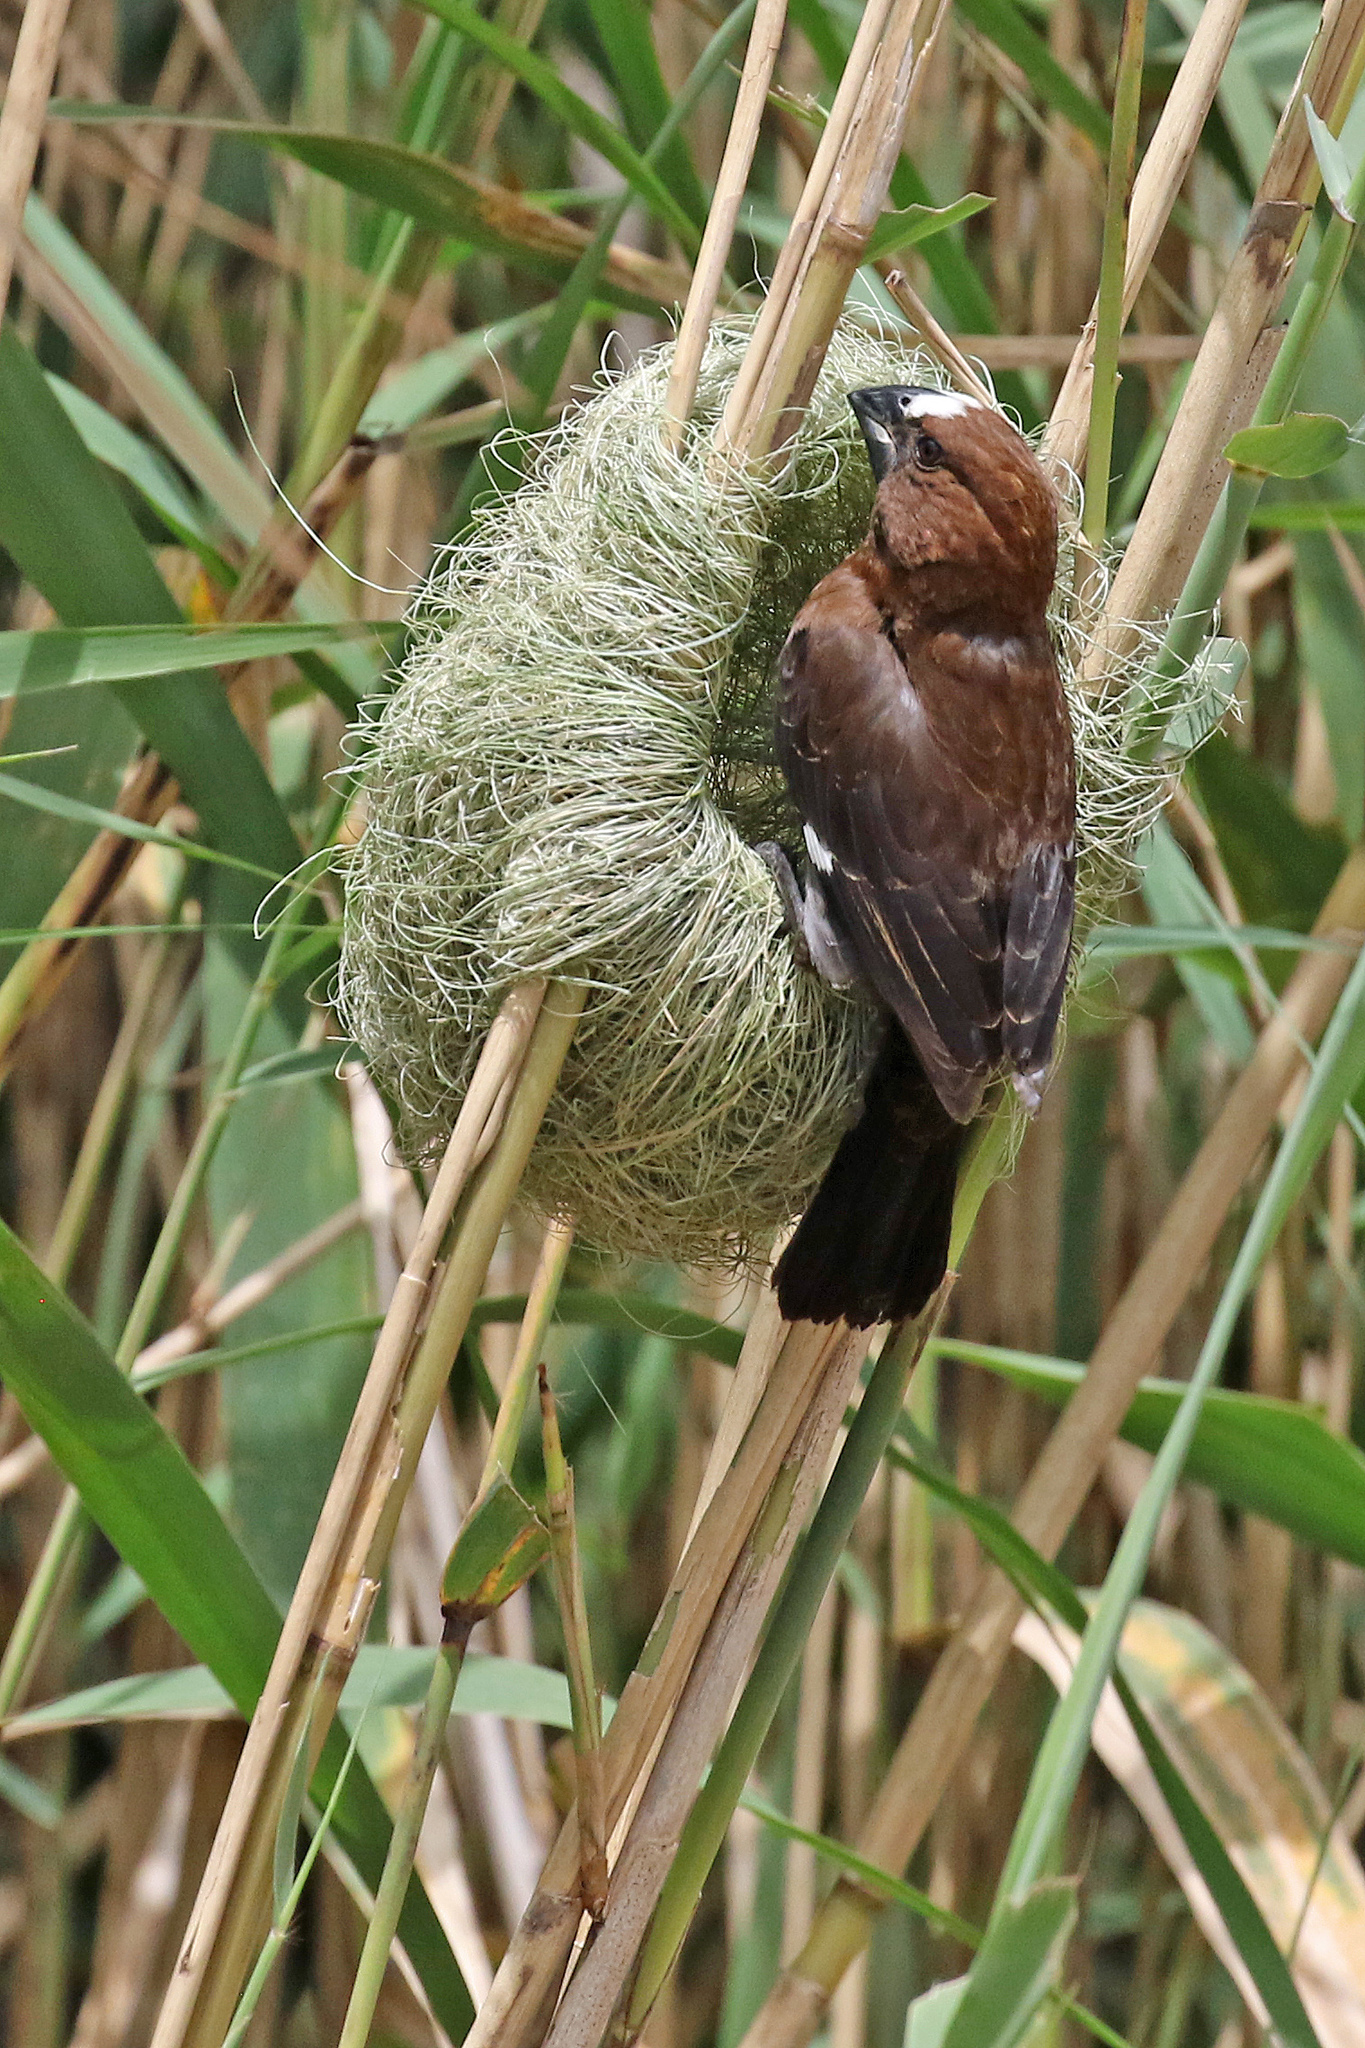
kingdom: Animalia
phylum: Chordata
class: Aves
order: Passeriformes
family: Ploceidae
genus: Amblyospiza
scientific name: Amblyospiza albifrons
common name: Thick-billed weaver
